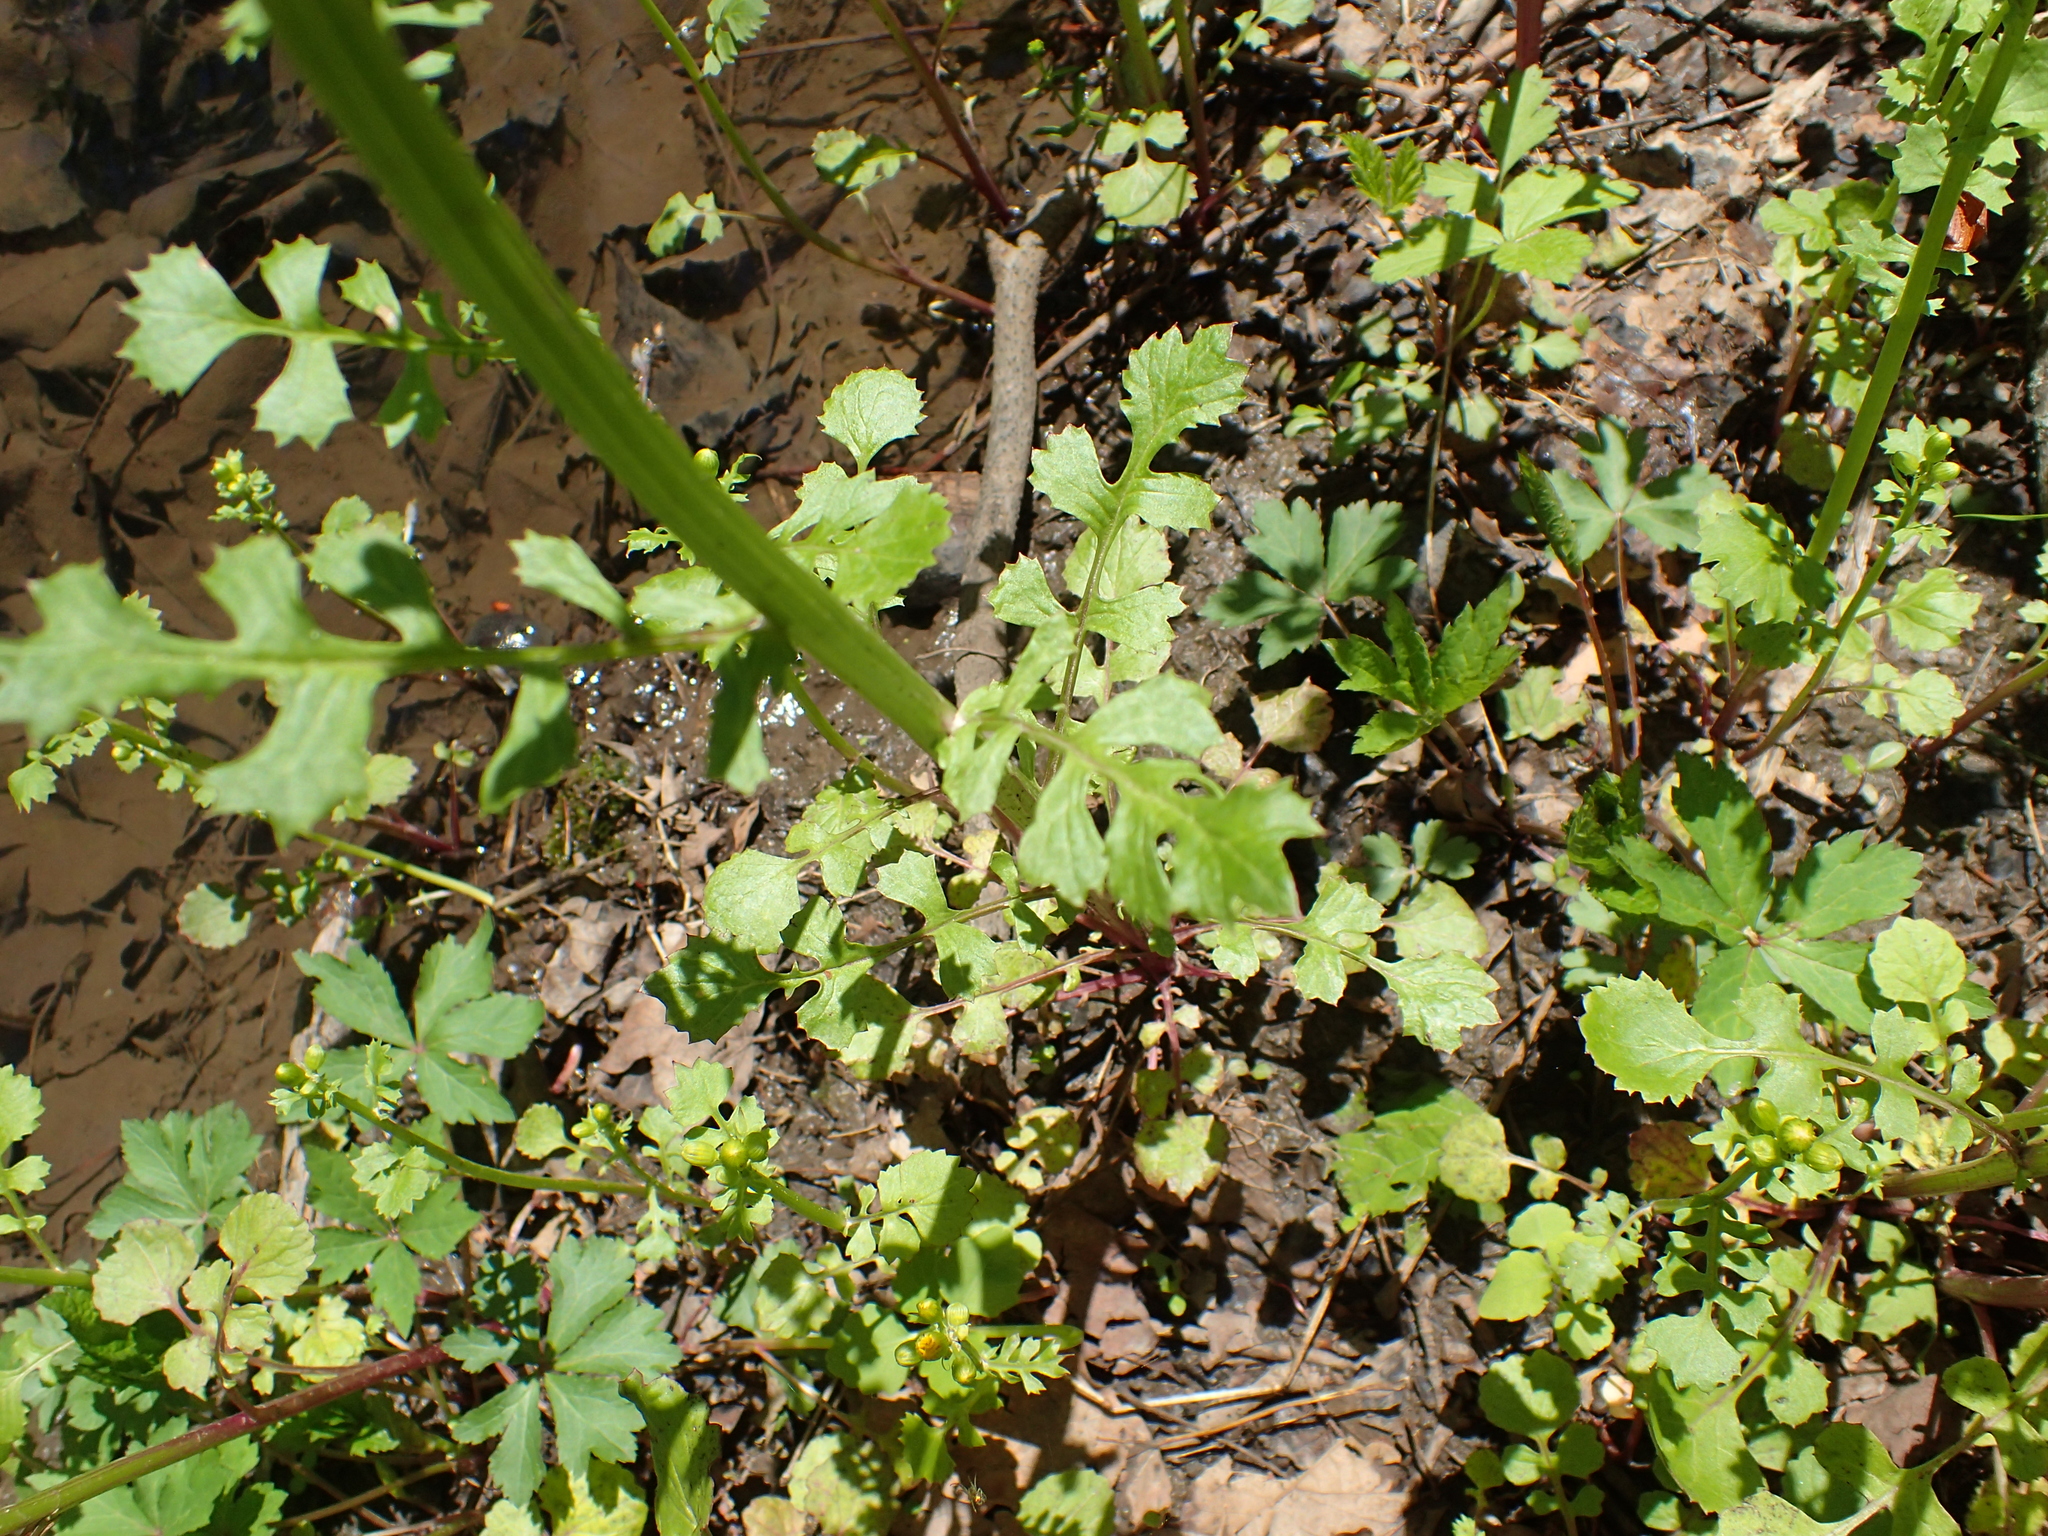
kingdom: Plantae
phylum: Tracheophyta
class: Magnoliopsida
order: Asterales
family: Asteraceae
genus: Packera
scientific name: Packera glabella
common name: Butterweed
